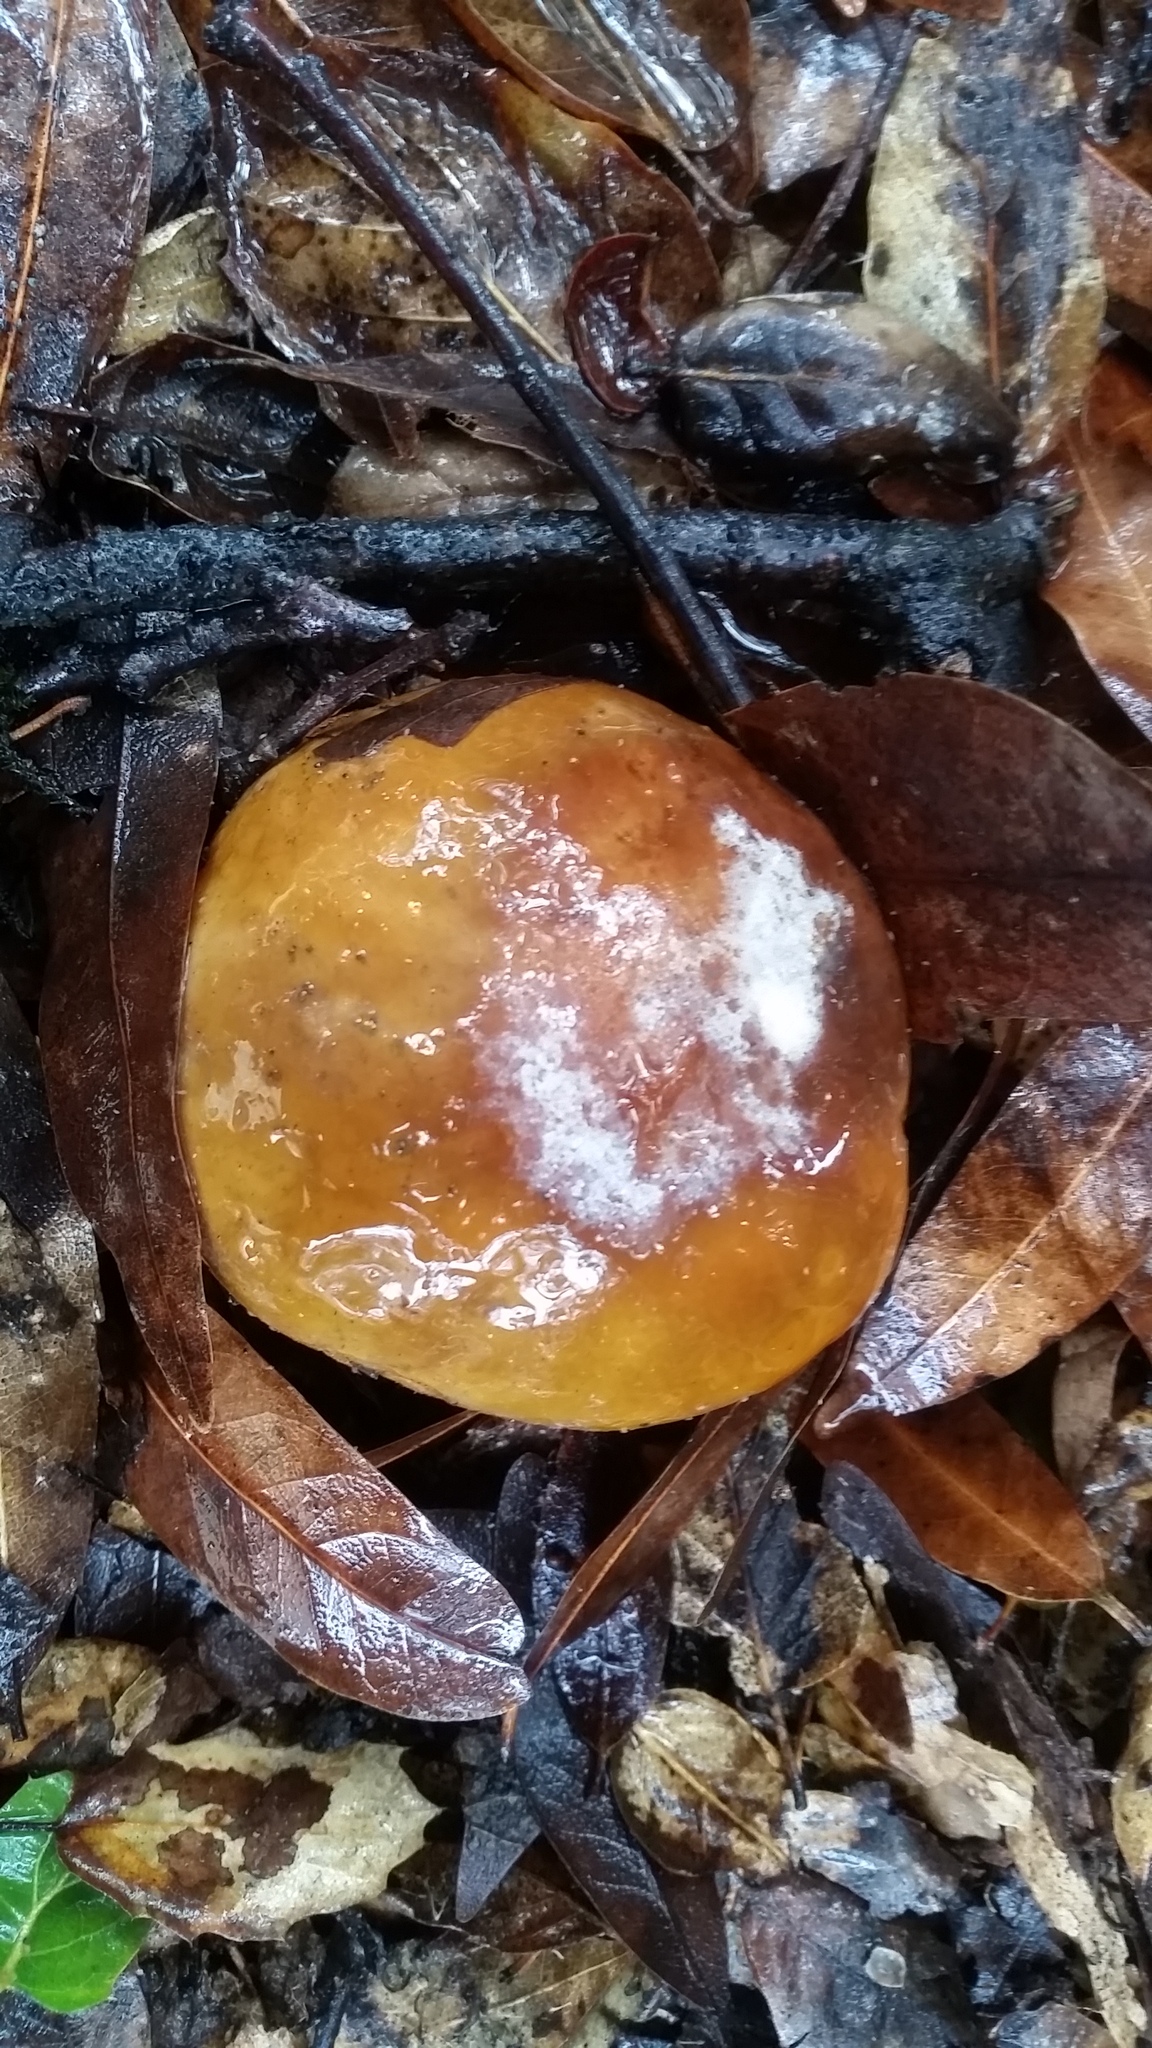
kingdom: Fungi
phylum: Basidiomycota
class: Agaricomycetes
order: Boletales
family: Boletaceae
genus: Boletus
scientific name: Boletus regineus
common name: Queen bolete
